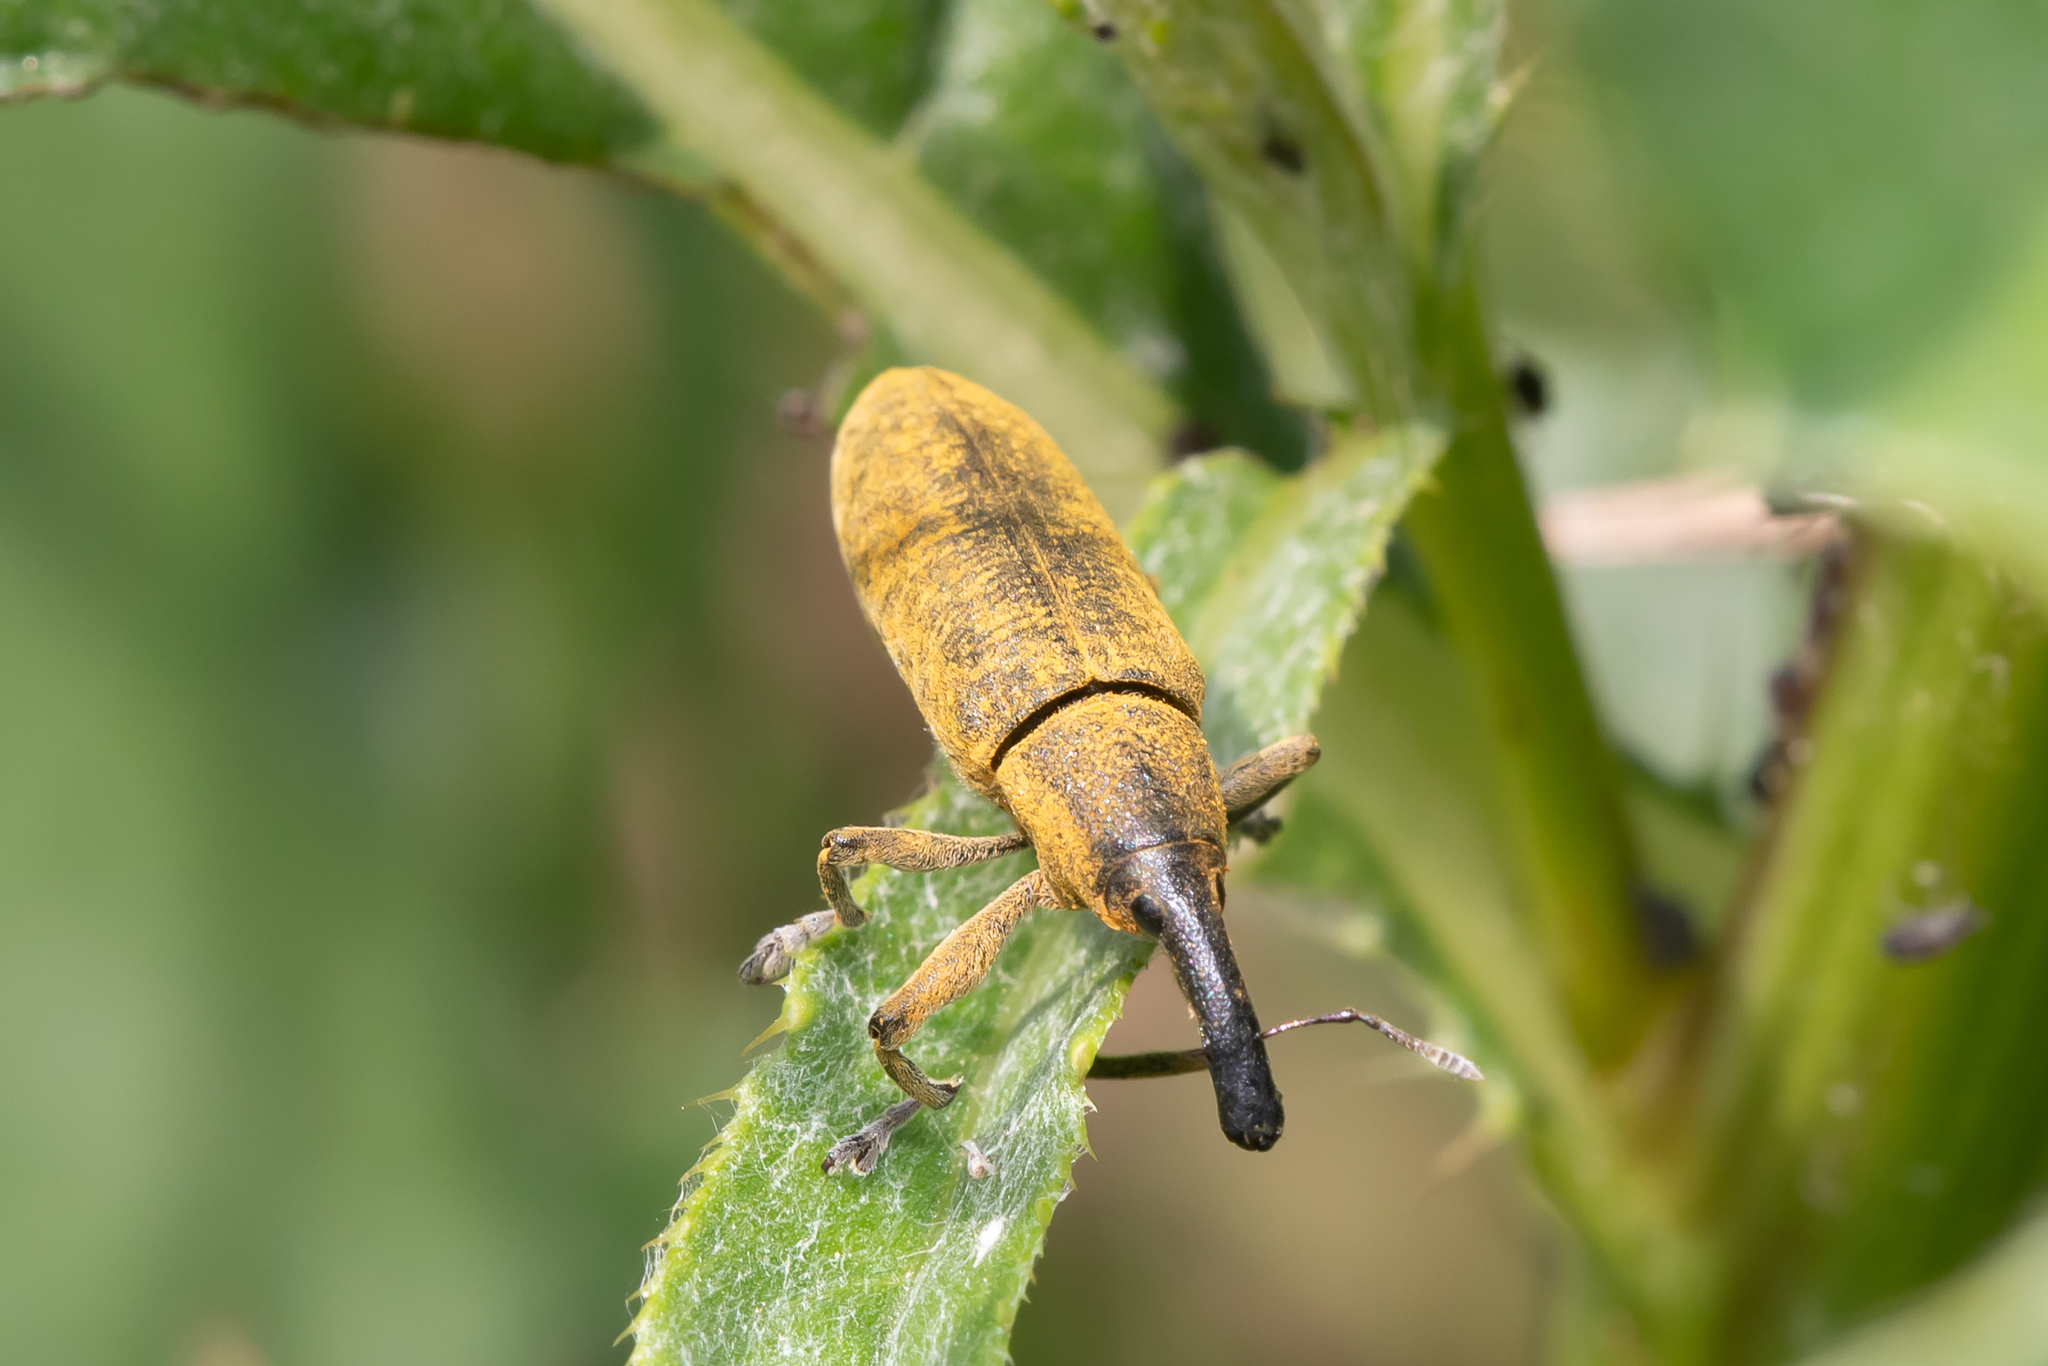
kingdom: Animalia
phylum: Arthropoda
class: Insecta
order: Coleoptera
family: Curculionidae
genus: Lixus
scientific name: Lixus pulverulentus
